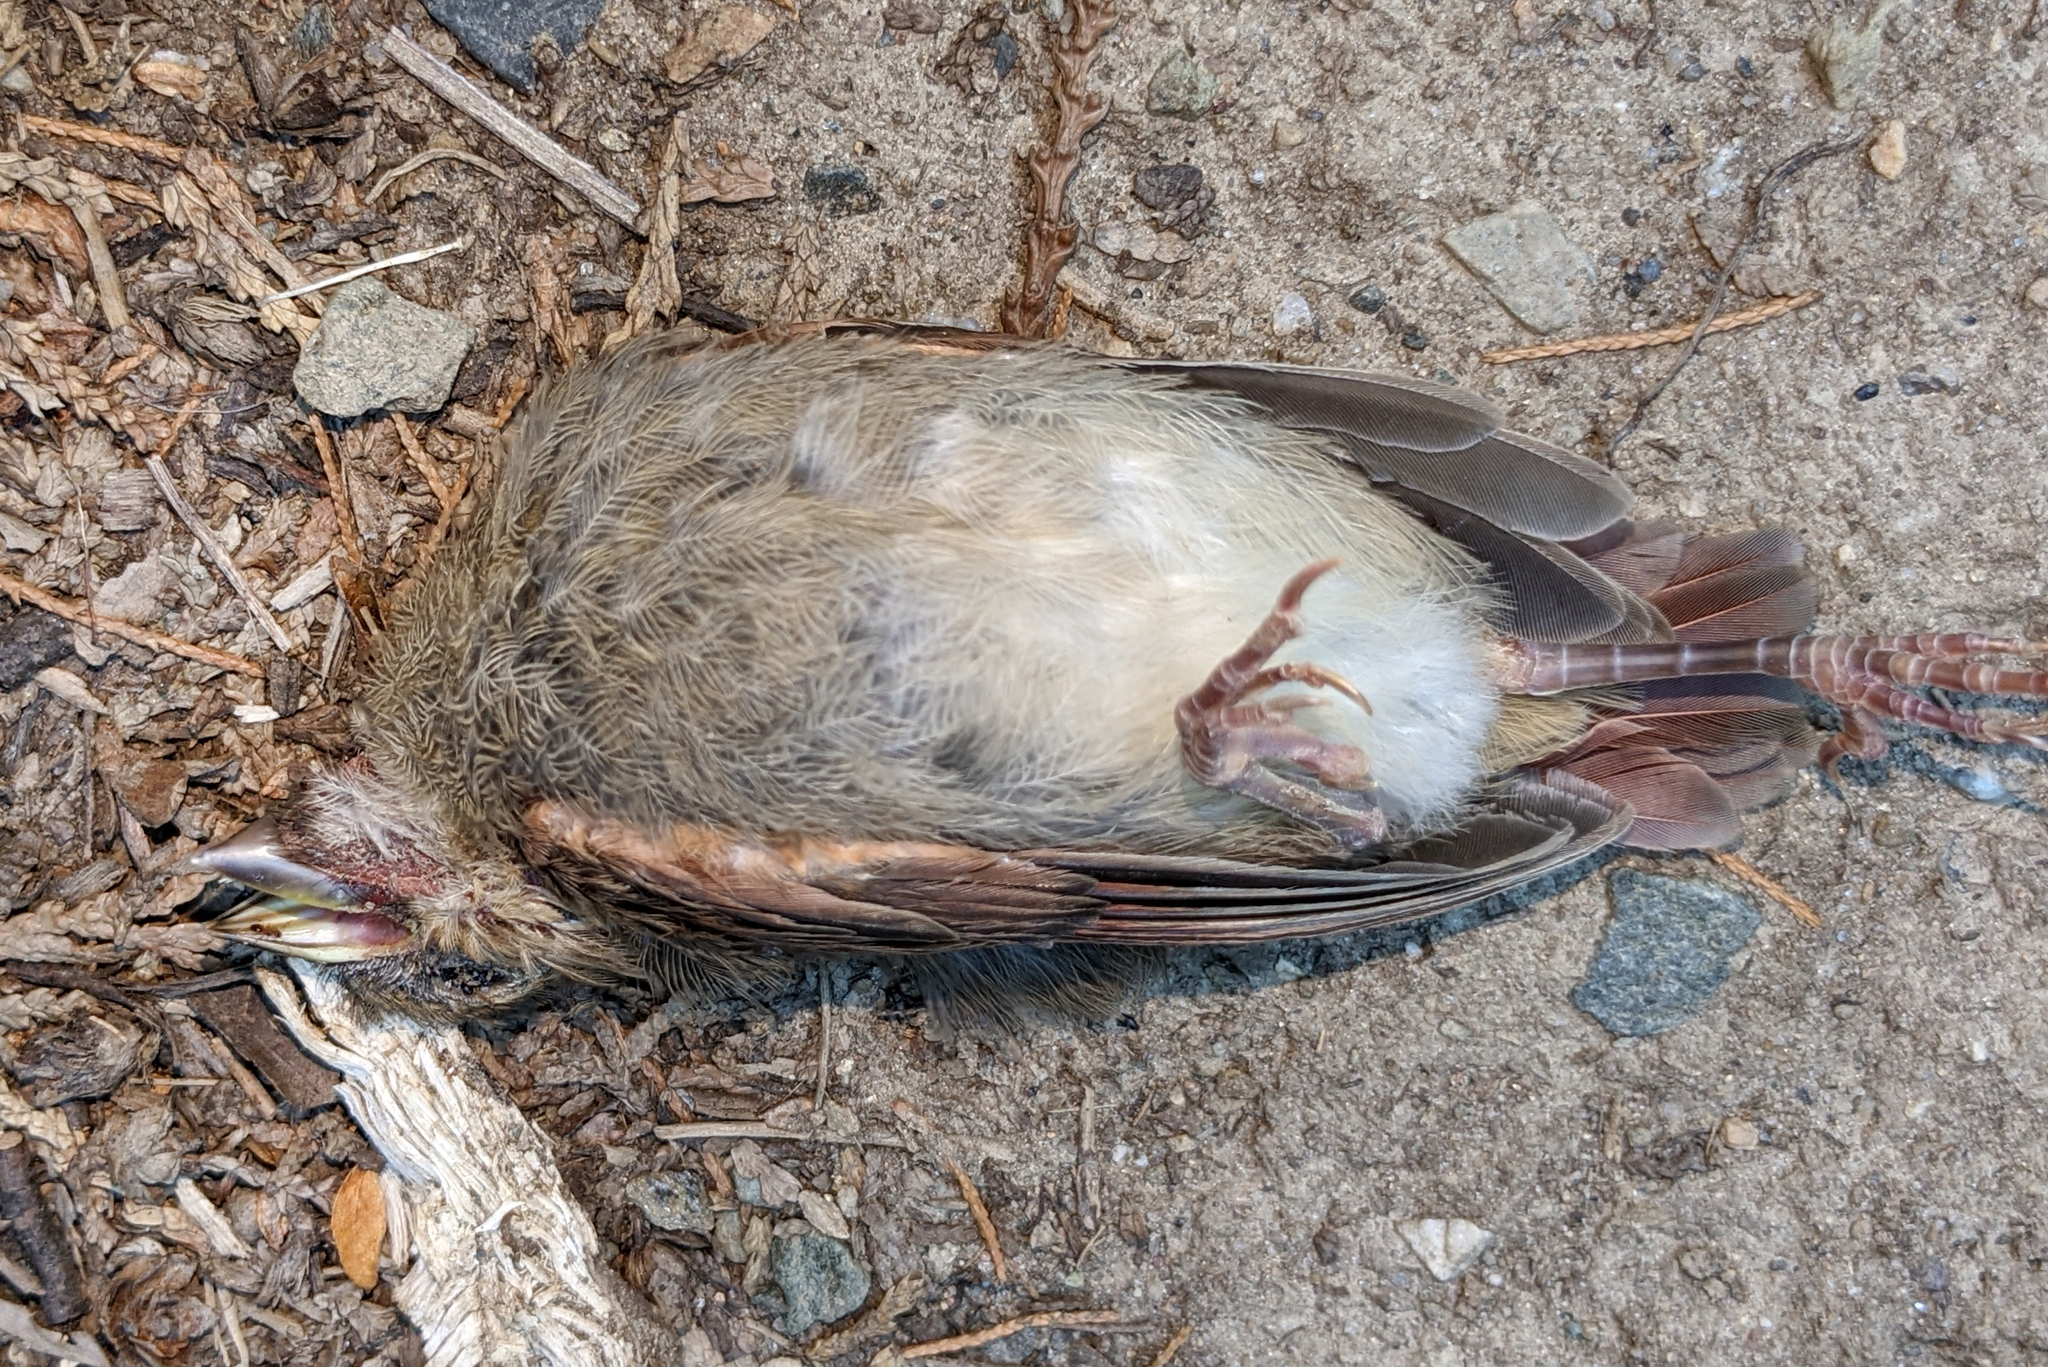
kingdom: Animalia
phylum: Chordata
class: Aves
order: Passeriformes
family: Cardinalidae
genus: Cardinalis
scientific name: Cardinalis cardinalis
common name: Northern cardinal
